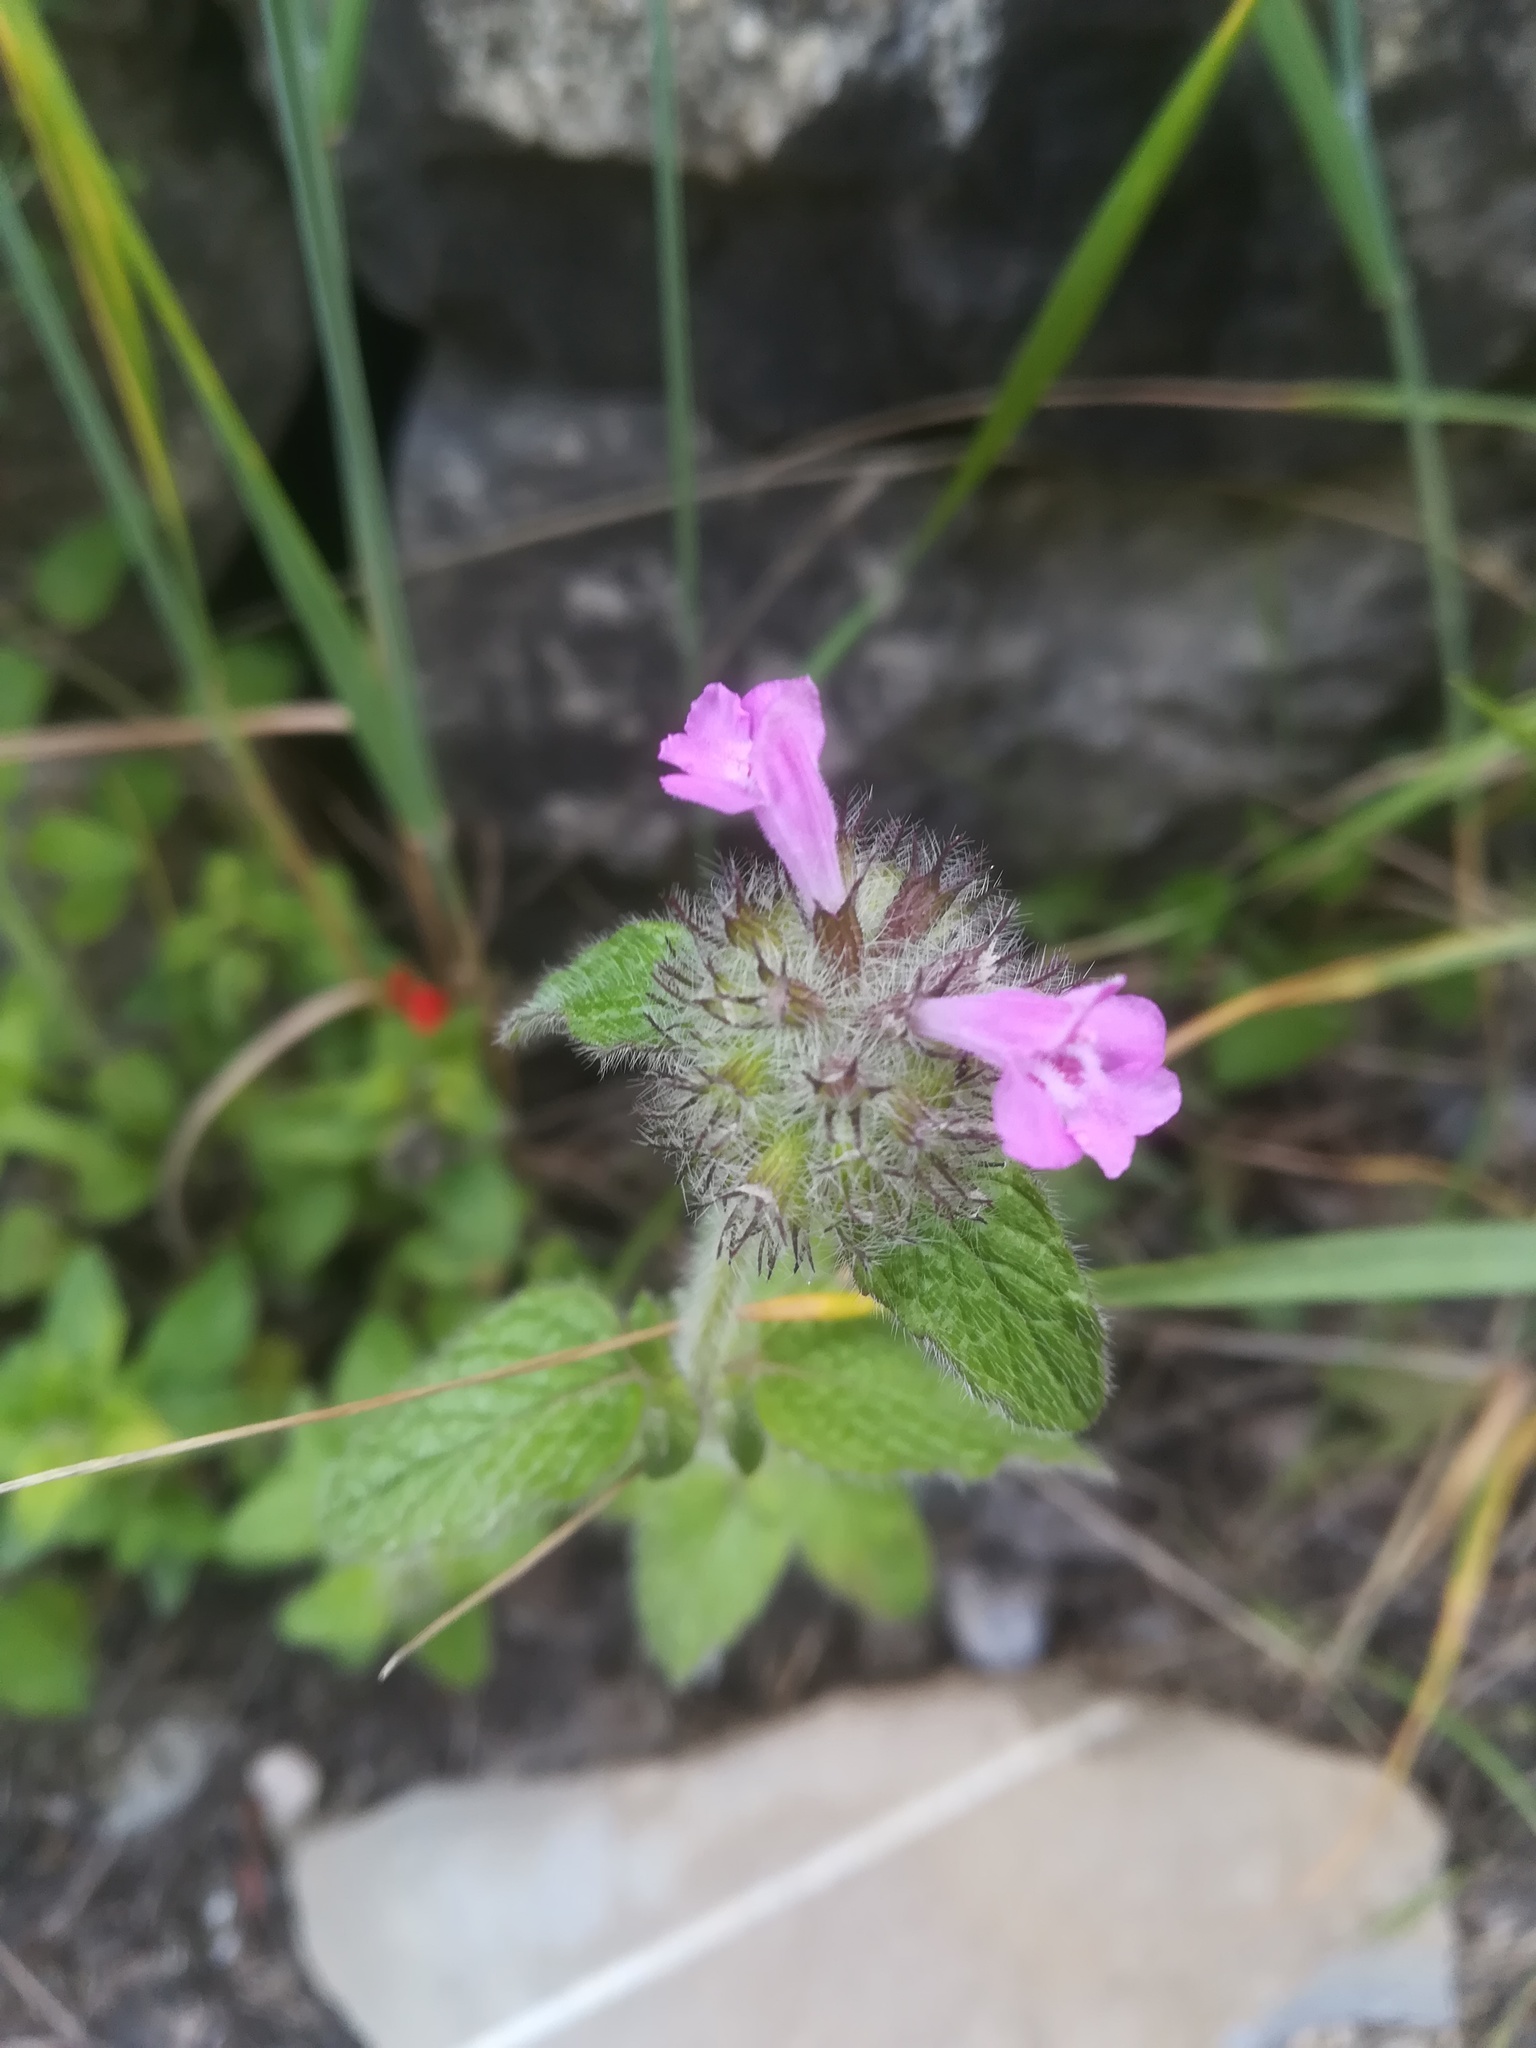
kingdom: Plantae
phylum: Tracheophyta
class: Magnoliopsida
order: Lamiales
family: Lamiaceae
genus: Clinopodium
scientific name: Clinopodium vulgare
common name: Wild basil
